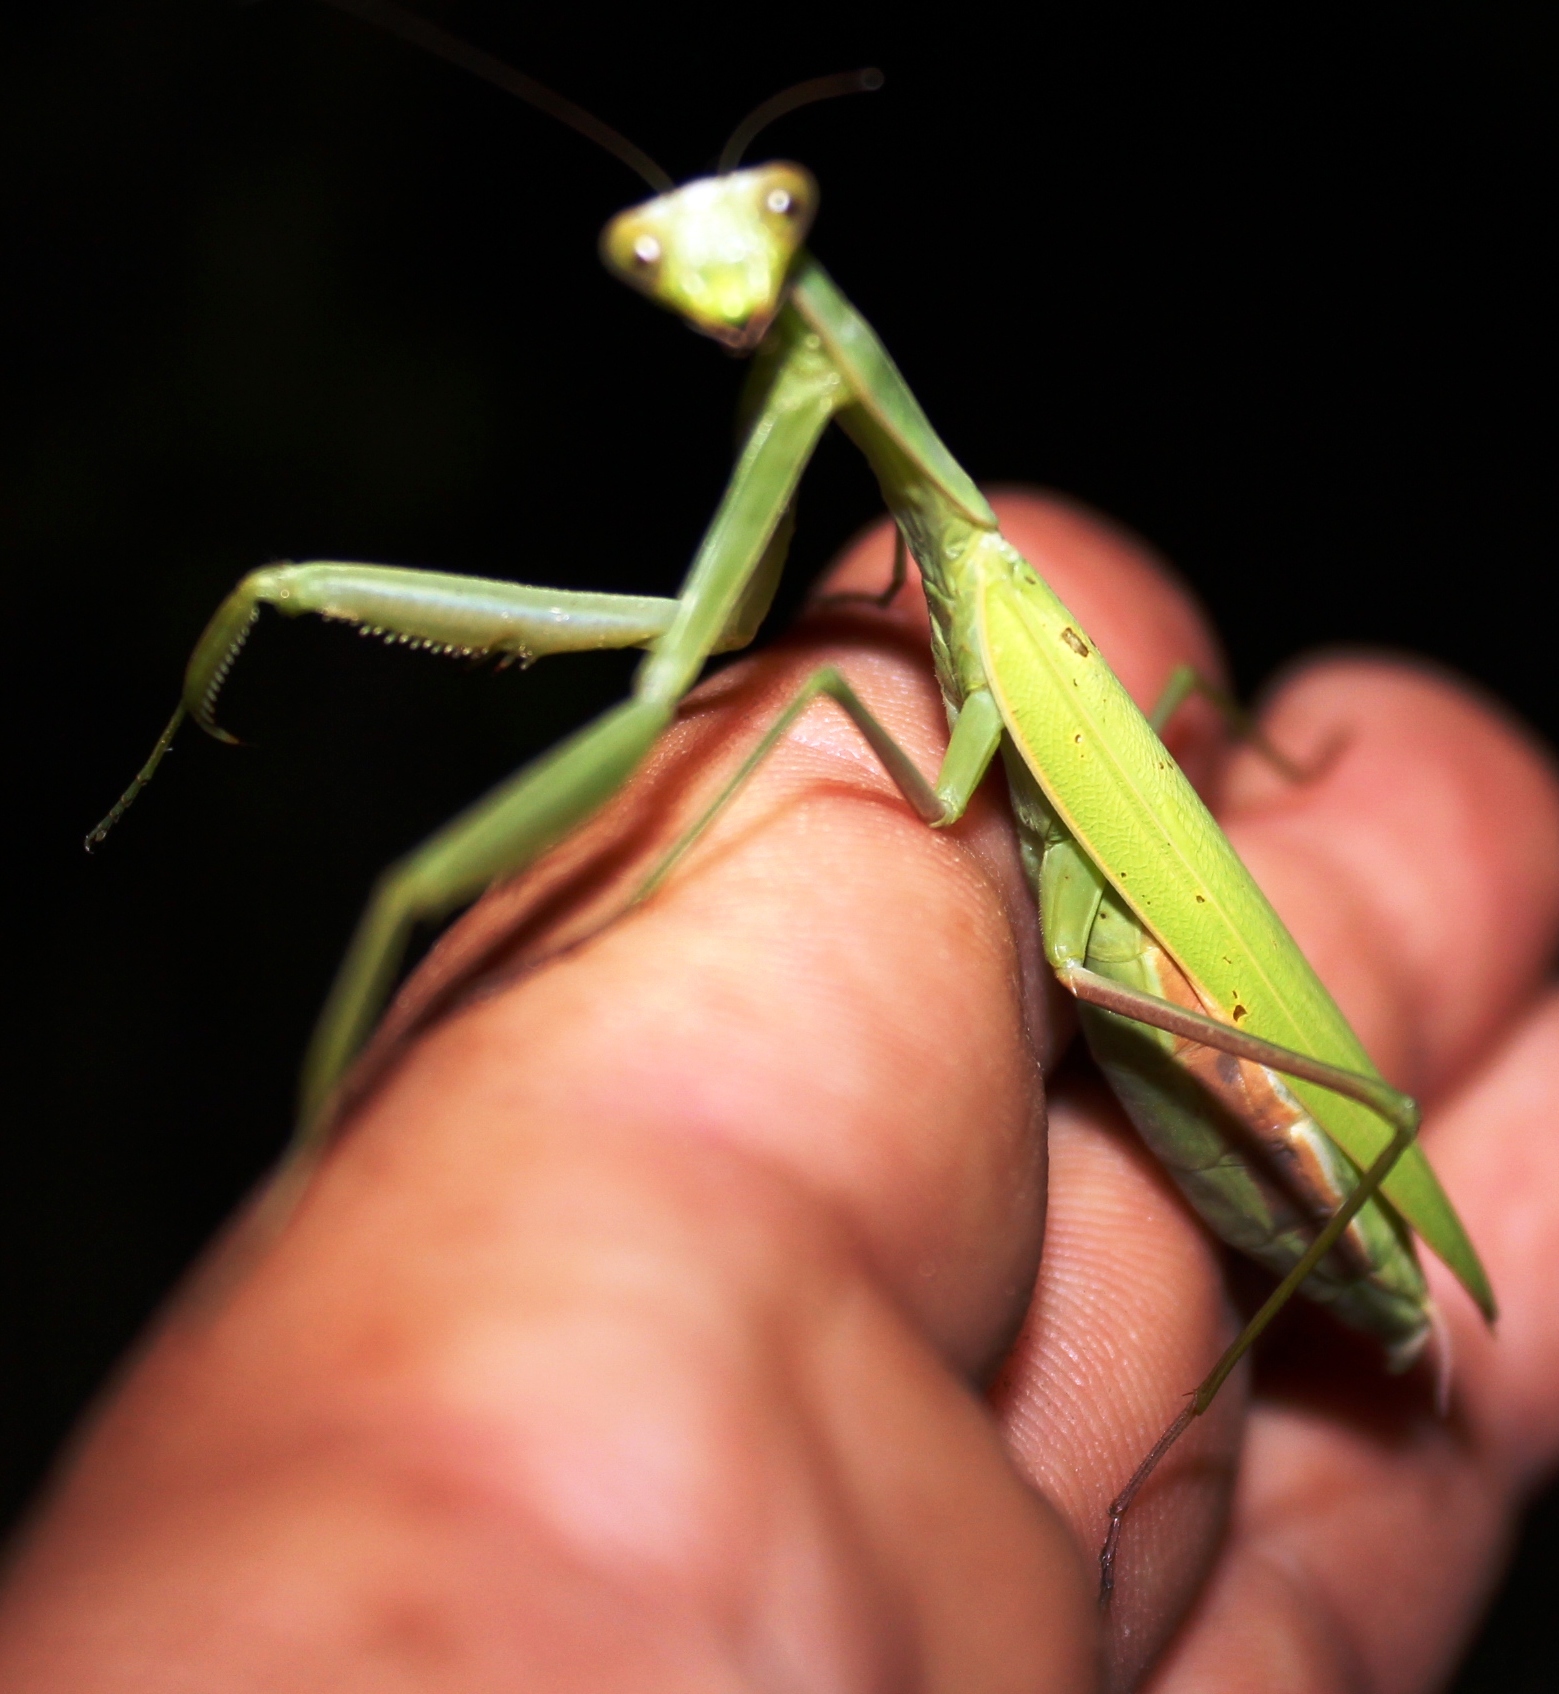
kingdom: Animalia
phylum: Arthropoda
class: Insecta
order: Mantodea
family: Mantidae
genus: Paramantis
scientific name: Paramantis sacra
